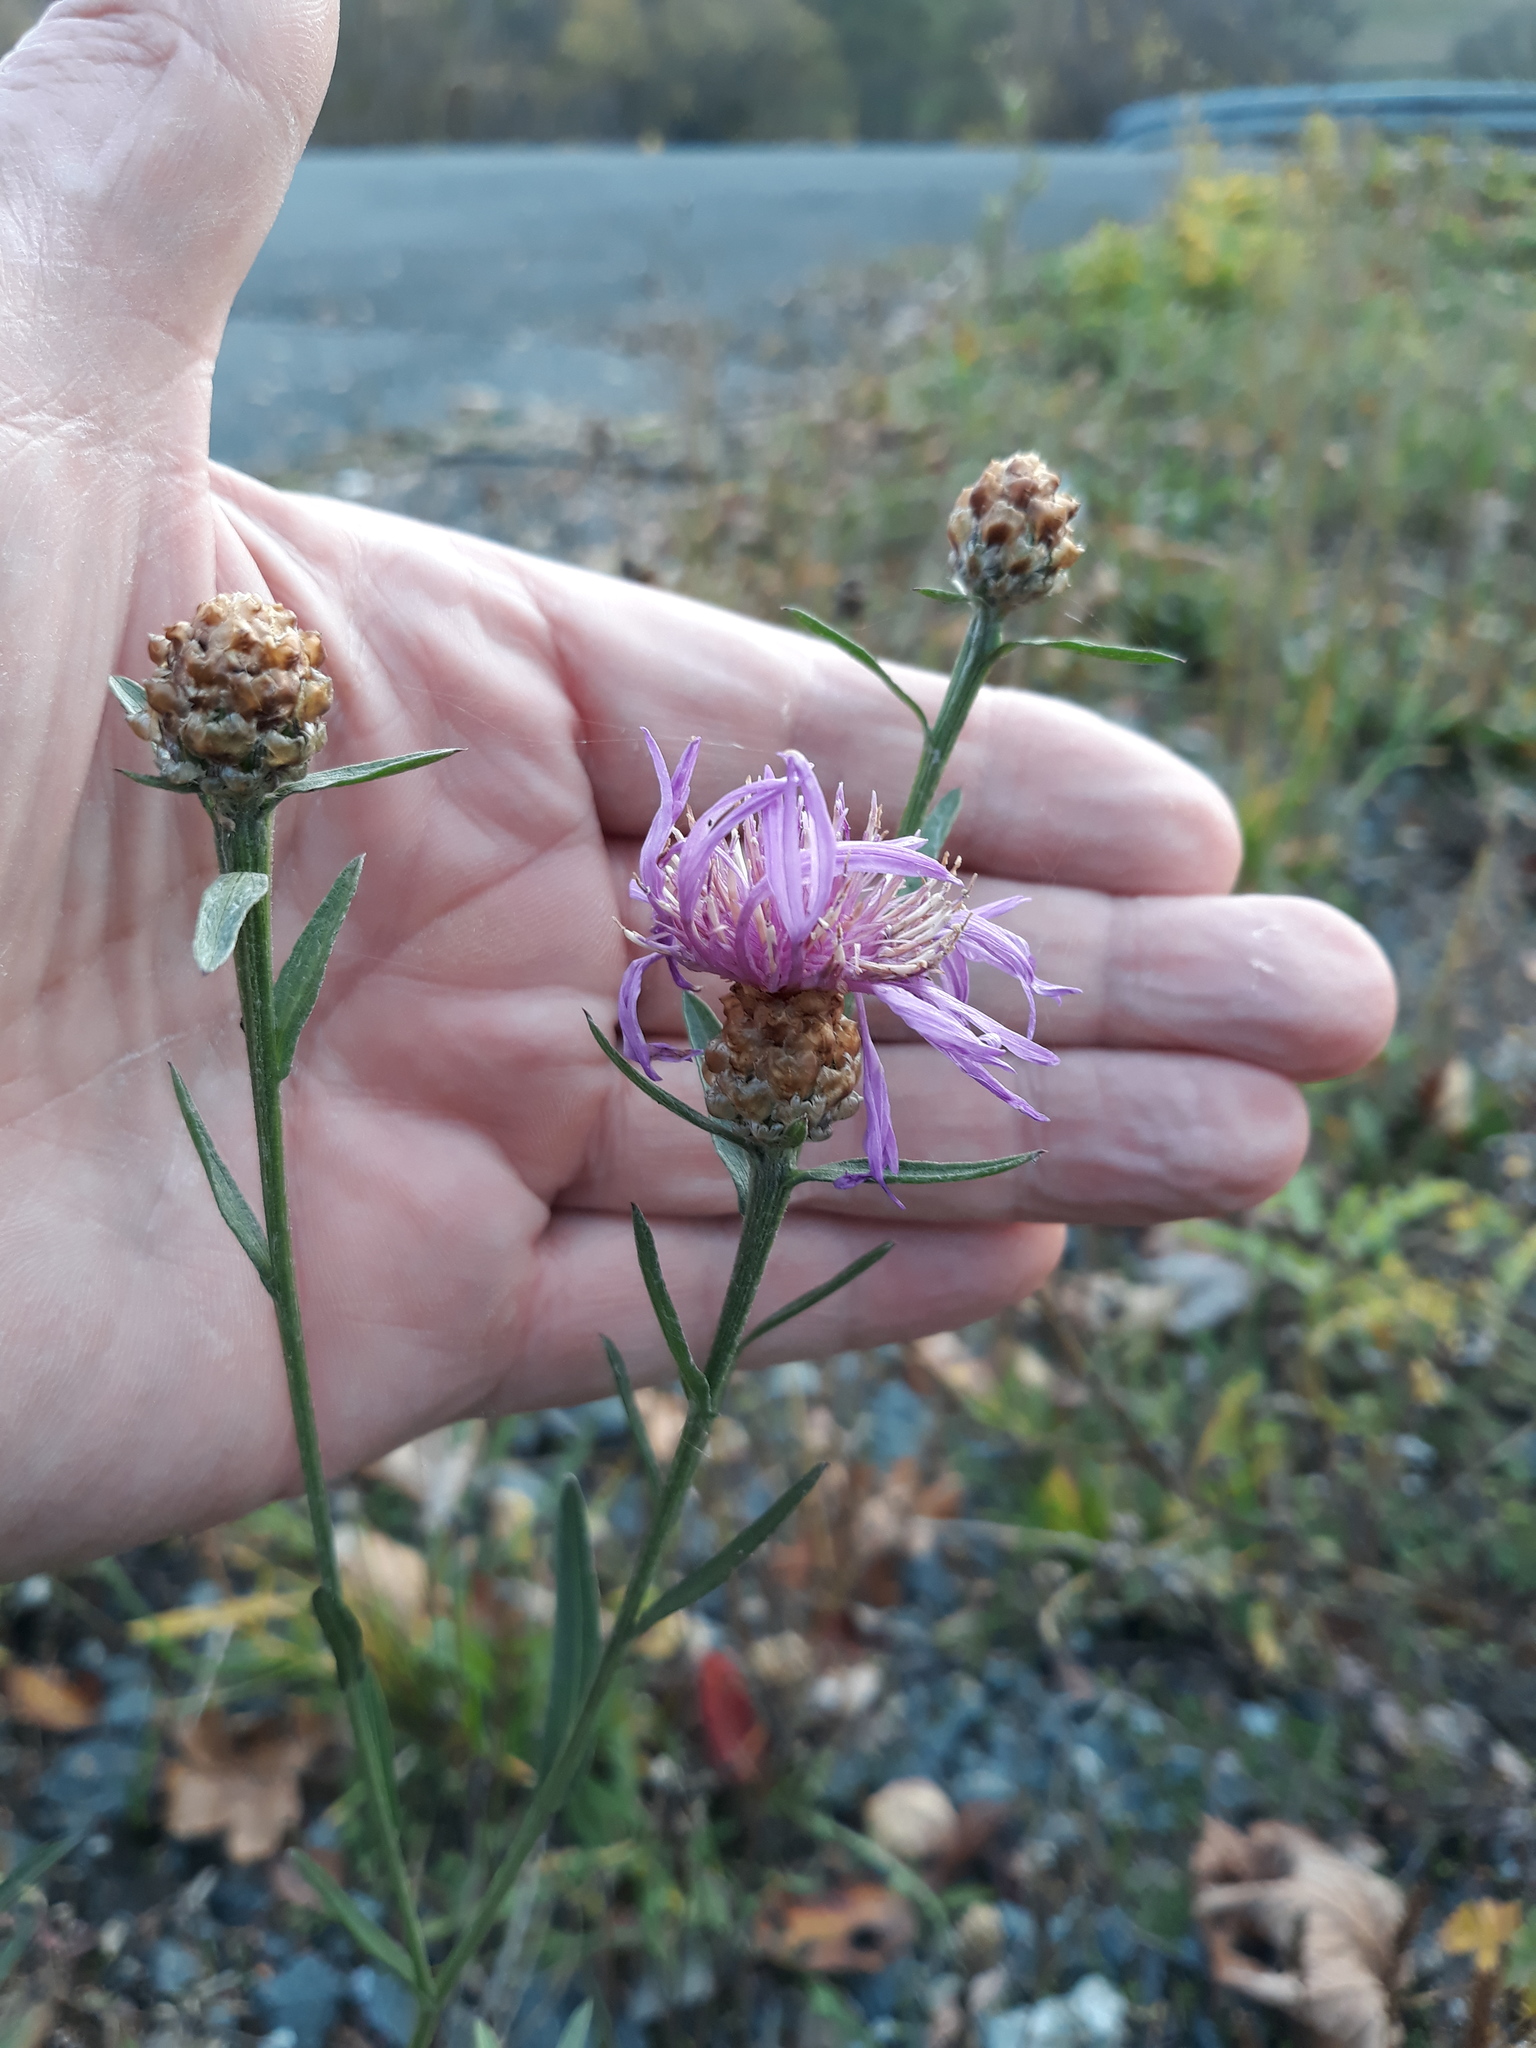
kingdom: Plantae
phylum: Tracheophyta
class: Magnoliopsida
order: Asterales
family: Asteraceae
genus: Centaurea
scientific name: Centaurea jacea
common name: Brown knapweed
